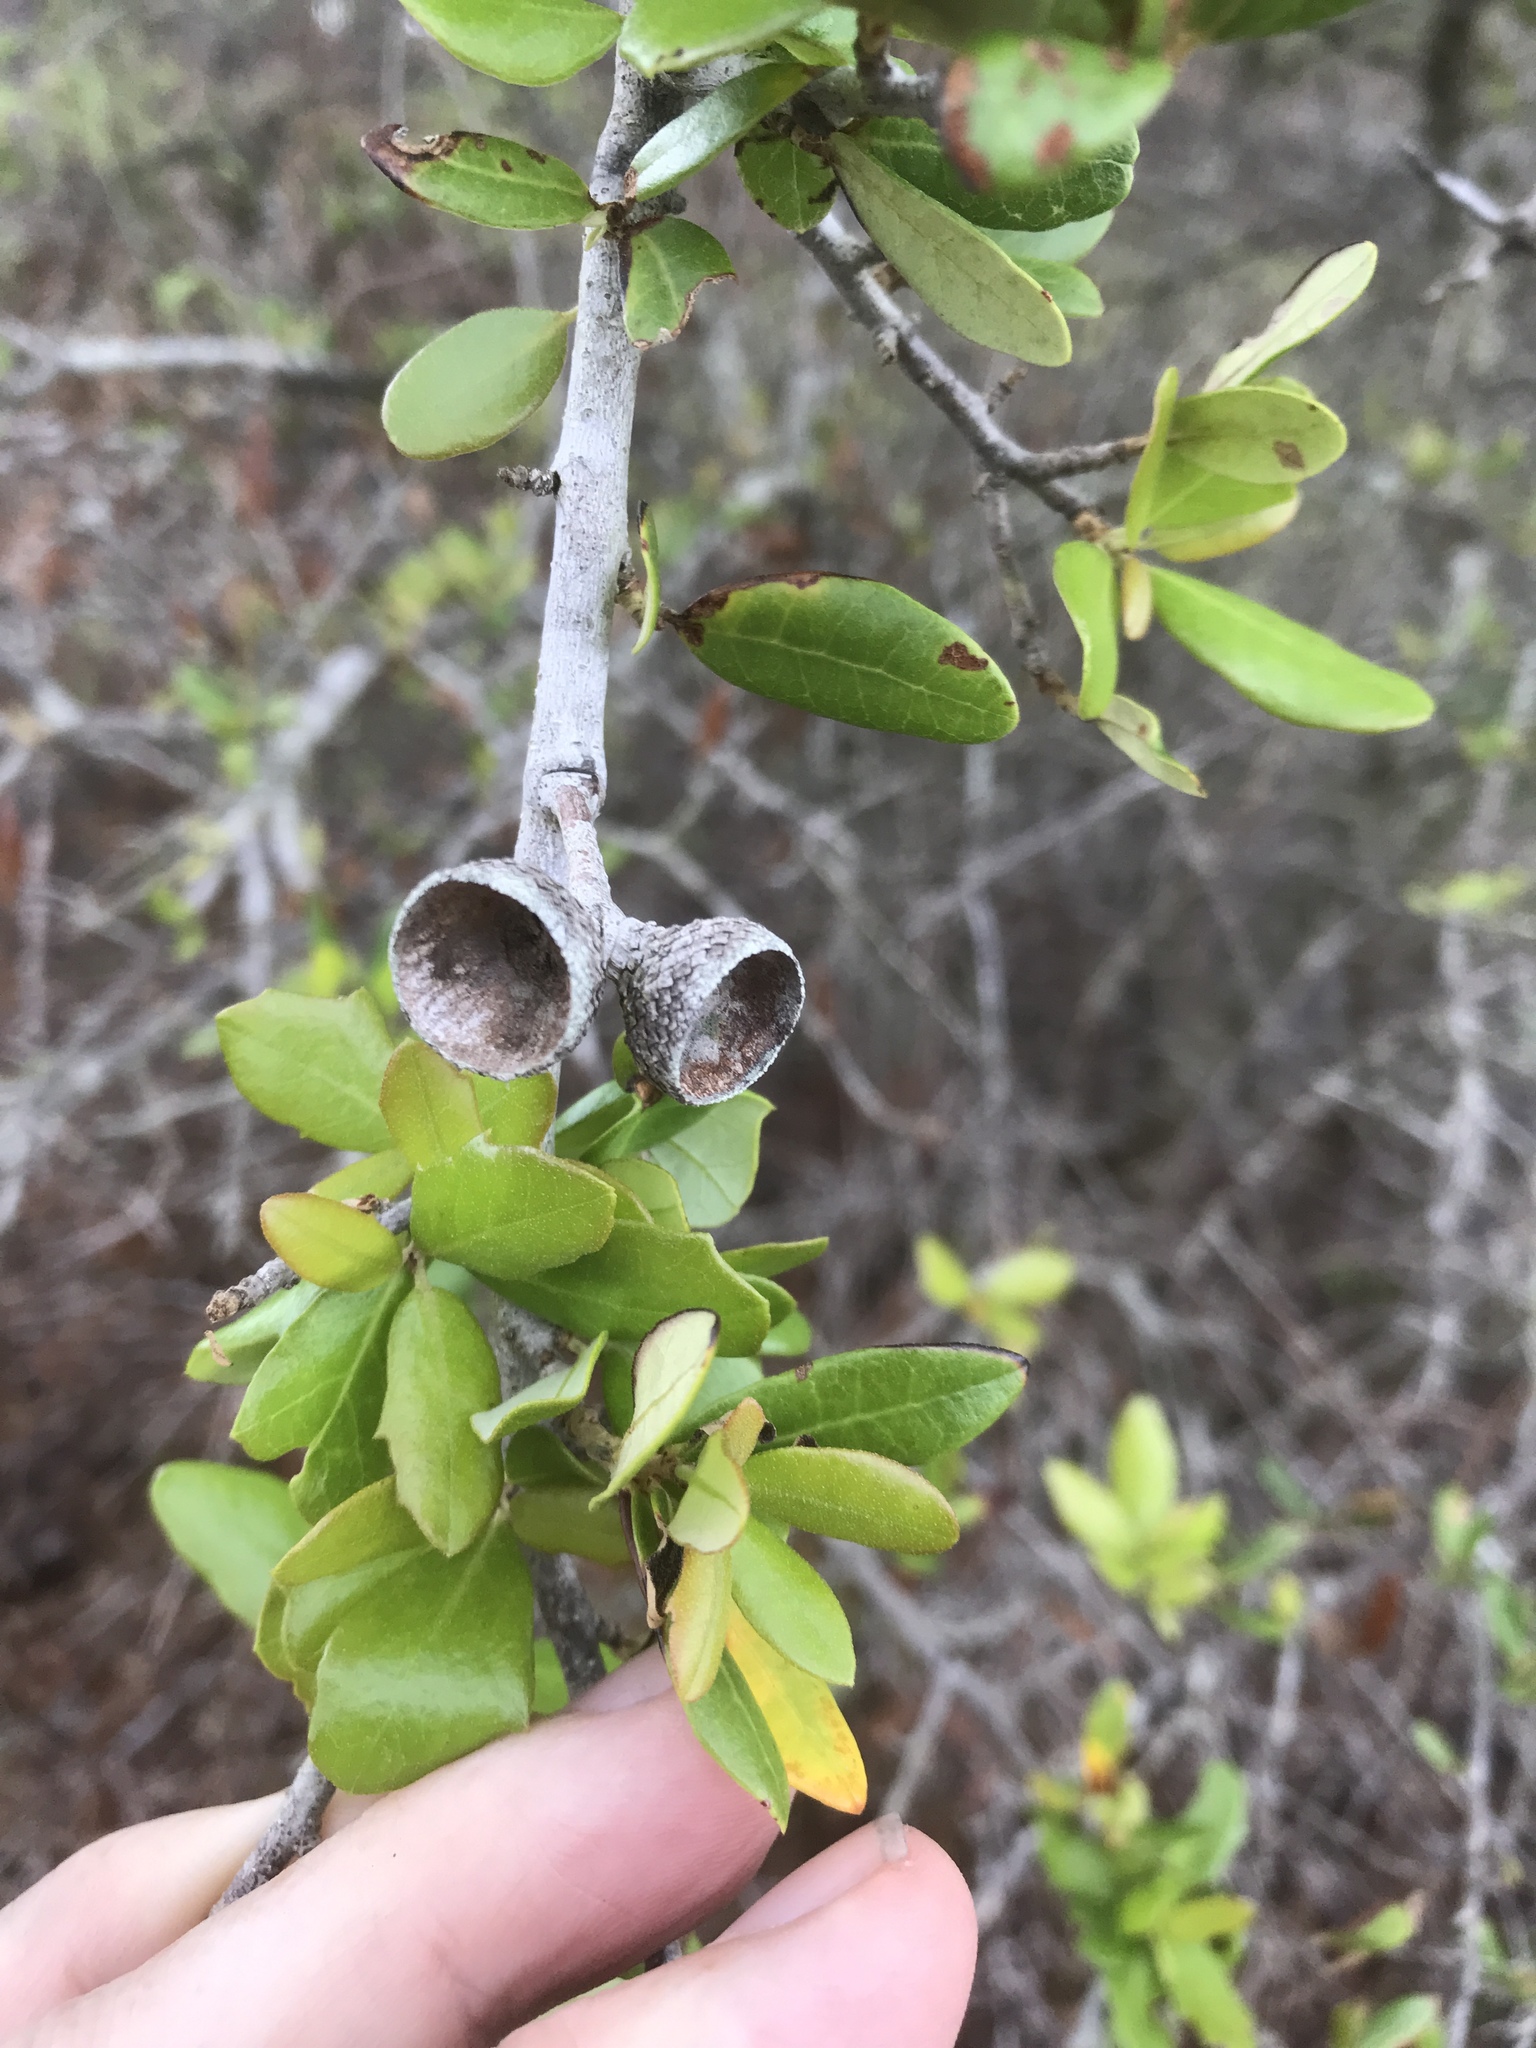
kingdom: Plantae
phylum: Tracheophyta
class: Magnoliopsida
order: Fagales
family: Fagaceae
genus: Quercus
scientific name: Quercus geminata
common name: Sand live oak
